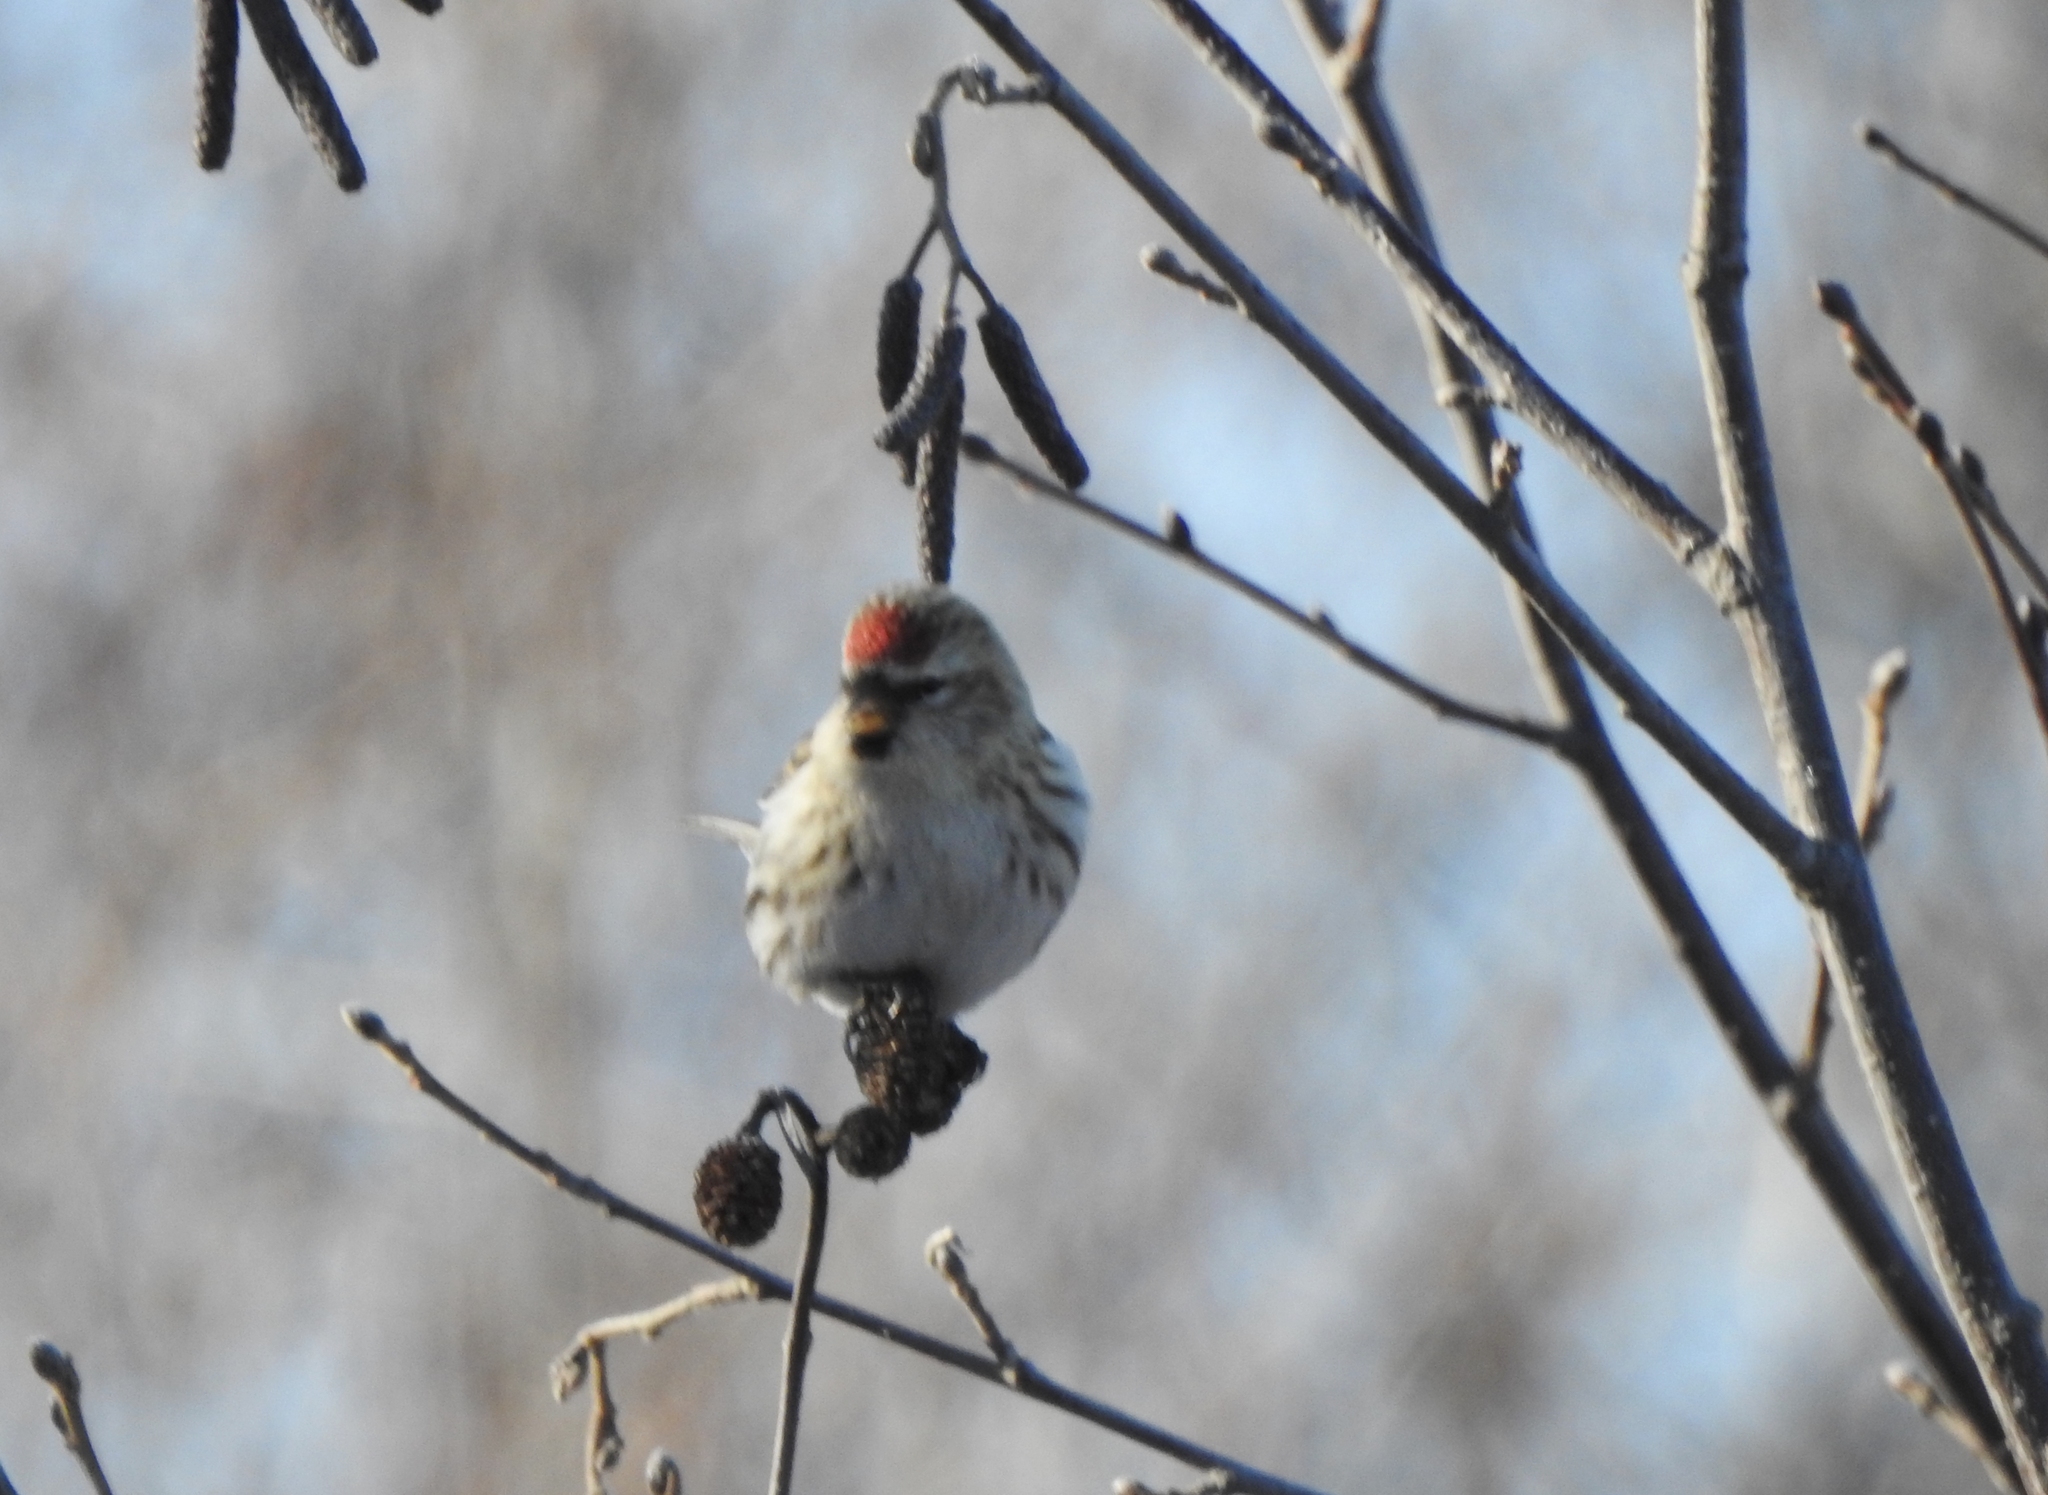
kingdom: Animalia
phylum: Chordata
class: Aves
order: Passeriformes
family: Fringillidae
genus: Acanthis
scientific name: Acanthis flammea
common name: Common redpoll
